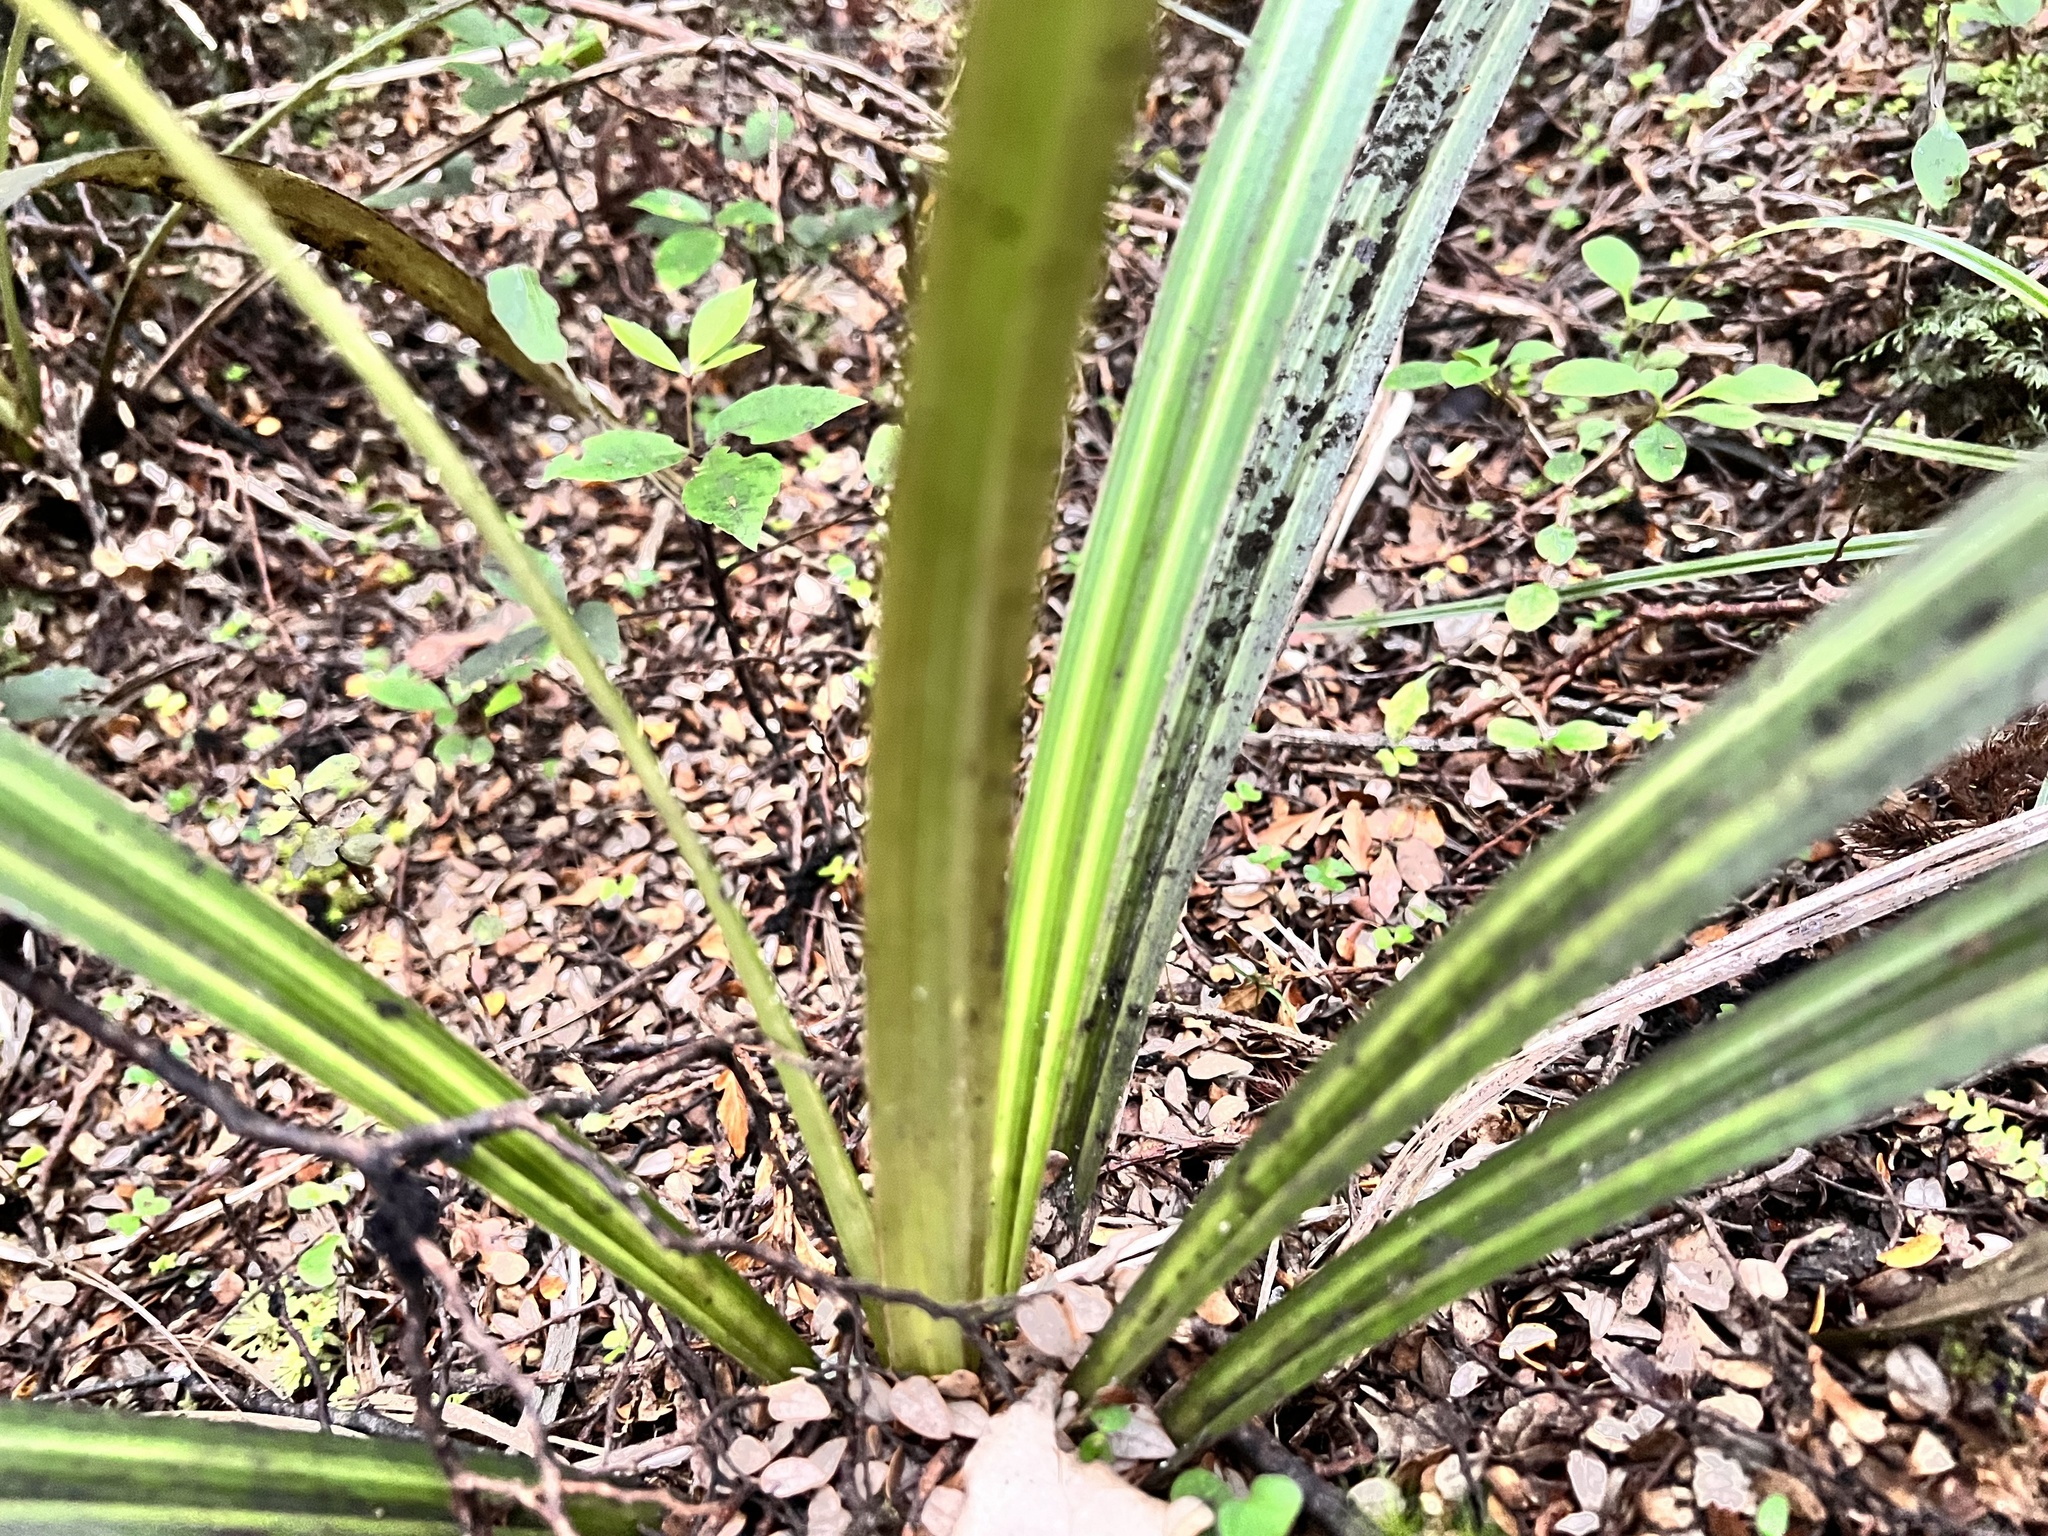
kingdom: Plantae
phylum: Tracheophyta
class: Liliopsida
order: Asparagales
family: Asteliaceae
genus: Astelia
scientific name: Astelia fragrans
